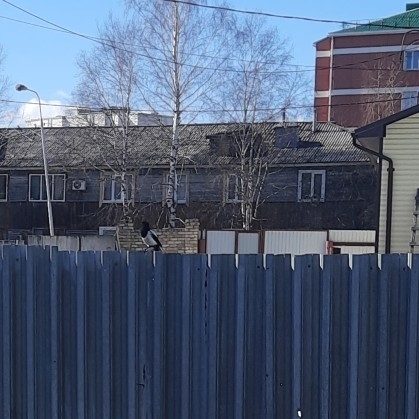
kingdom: Animalia
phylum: Chordata
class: Aves
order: Passeriformes
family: Corvidae
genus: Pica
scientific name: Pica pica
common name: Eurasian magpie
